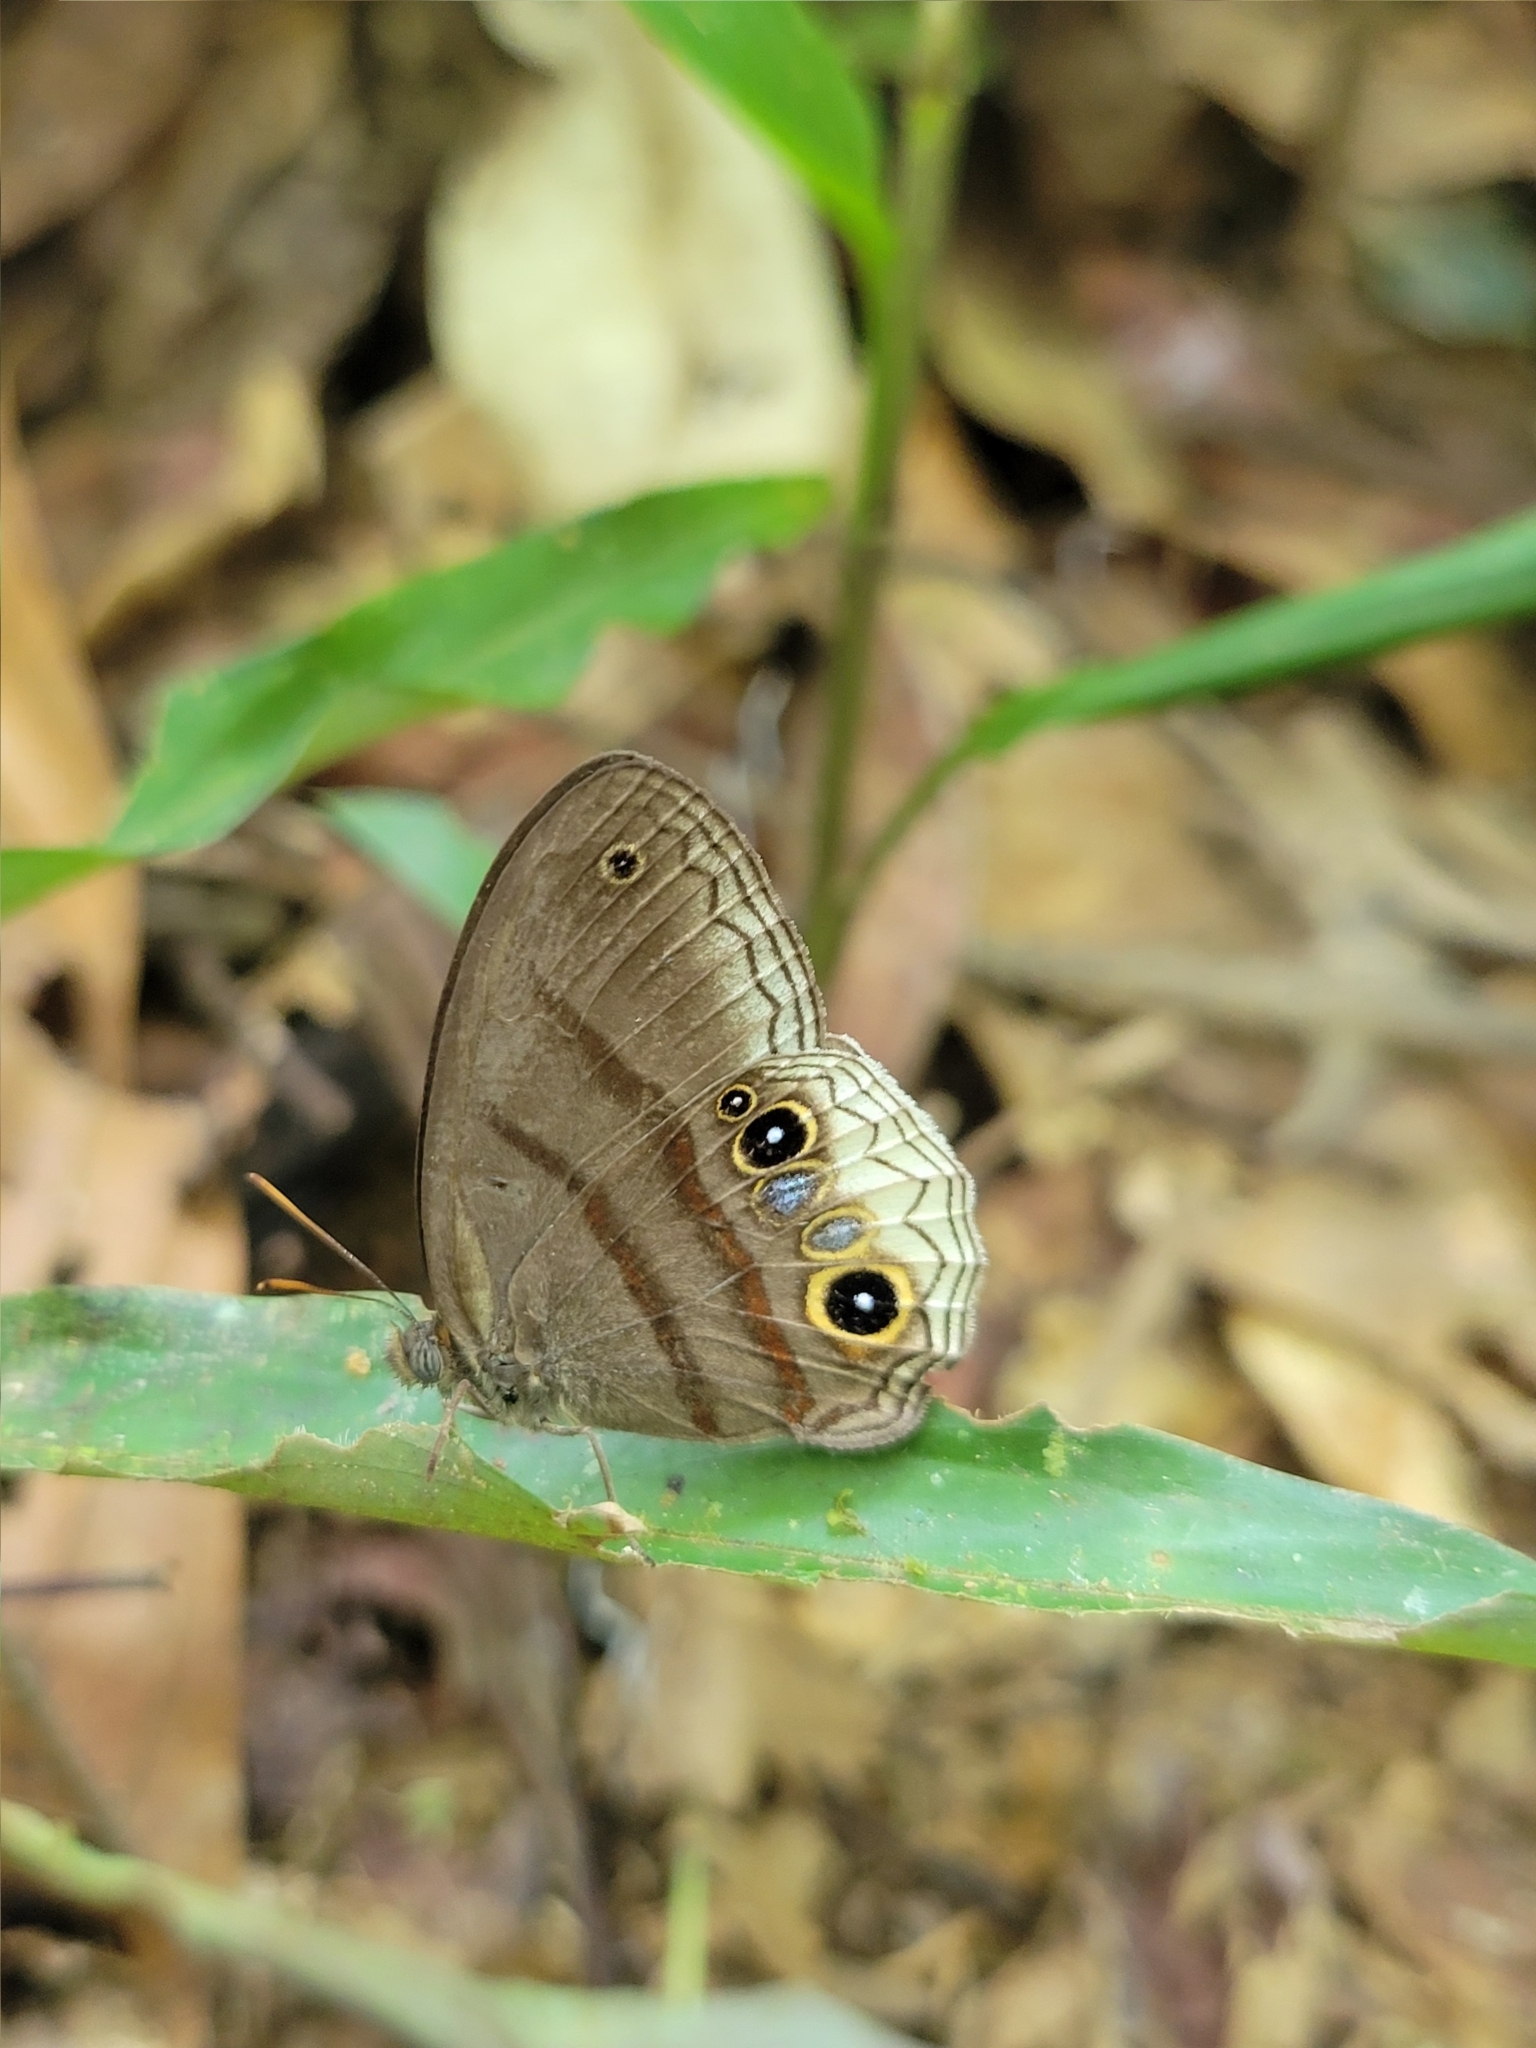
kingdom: Animalia
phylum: Arthropoda
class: Insecta
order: Lepidoptera
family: Nymphalidae
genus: Omacha
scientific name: Omacha
